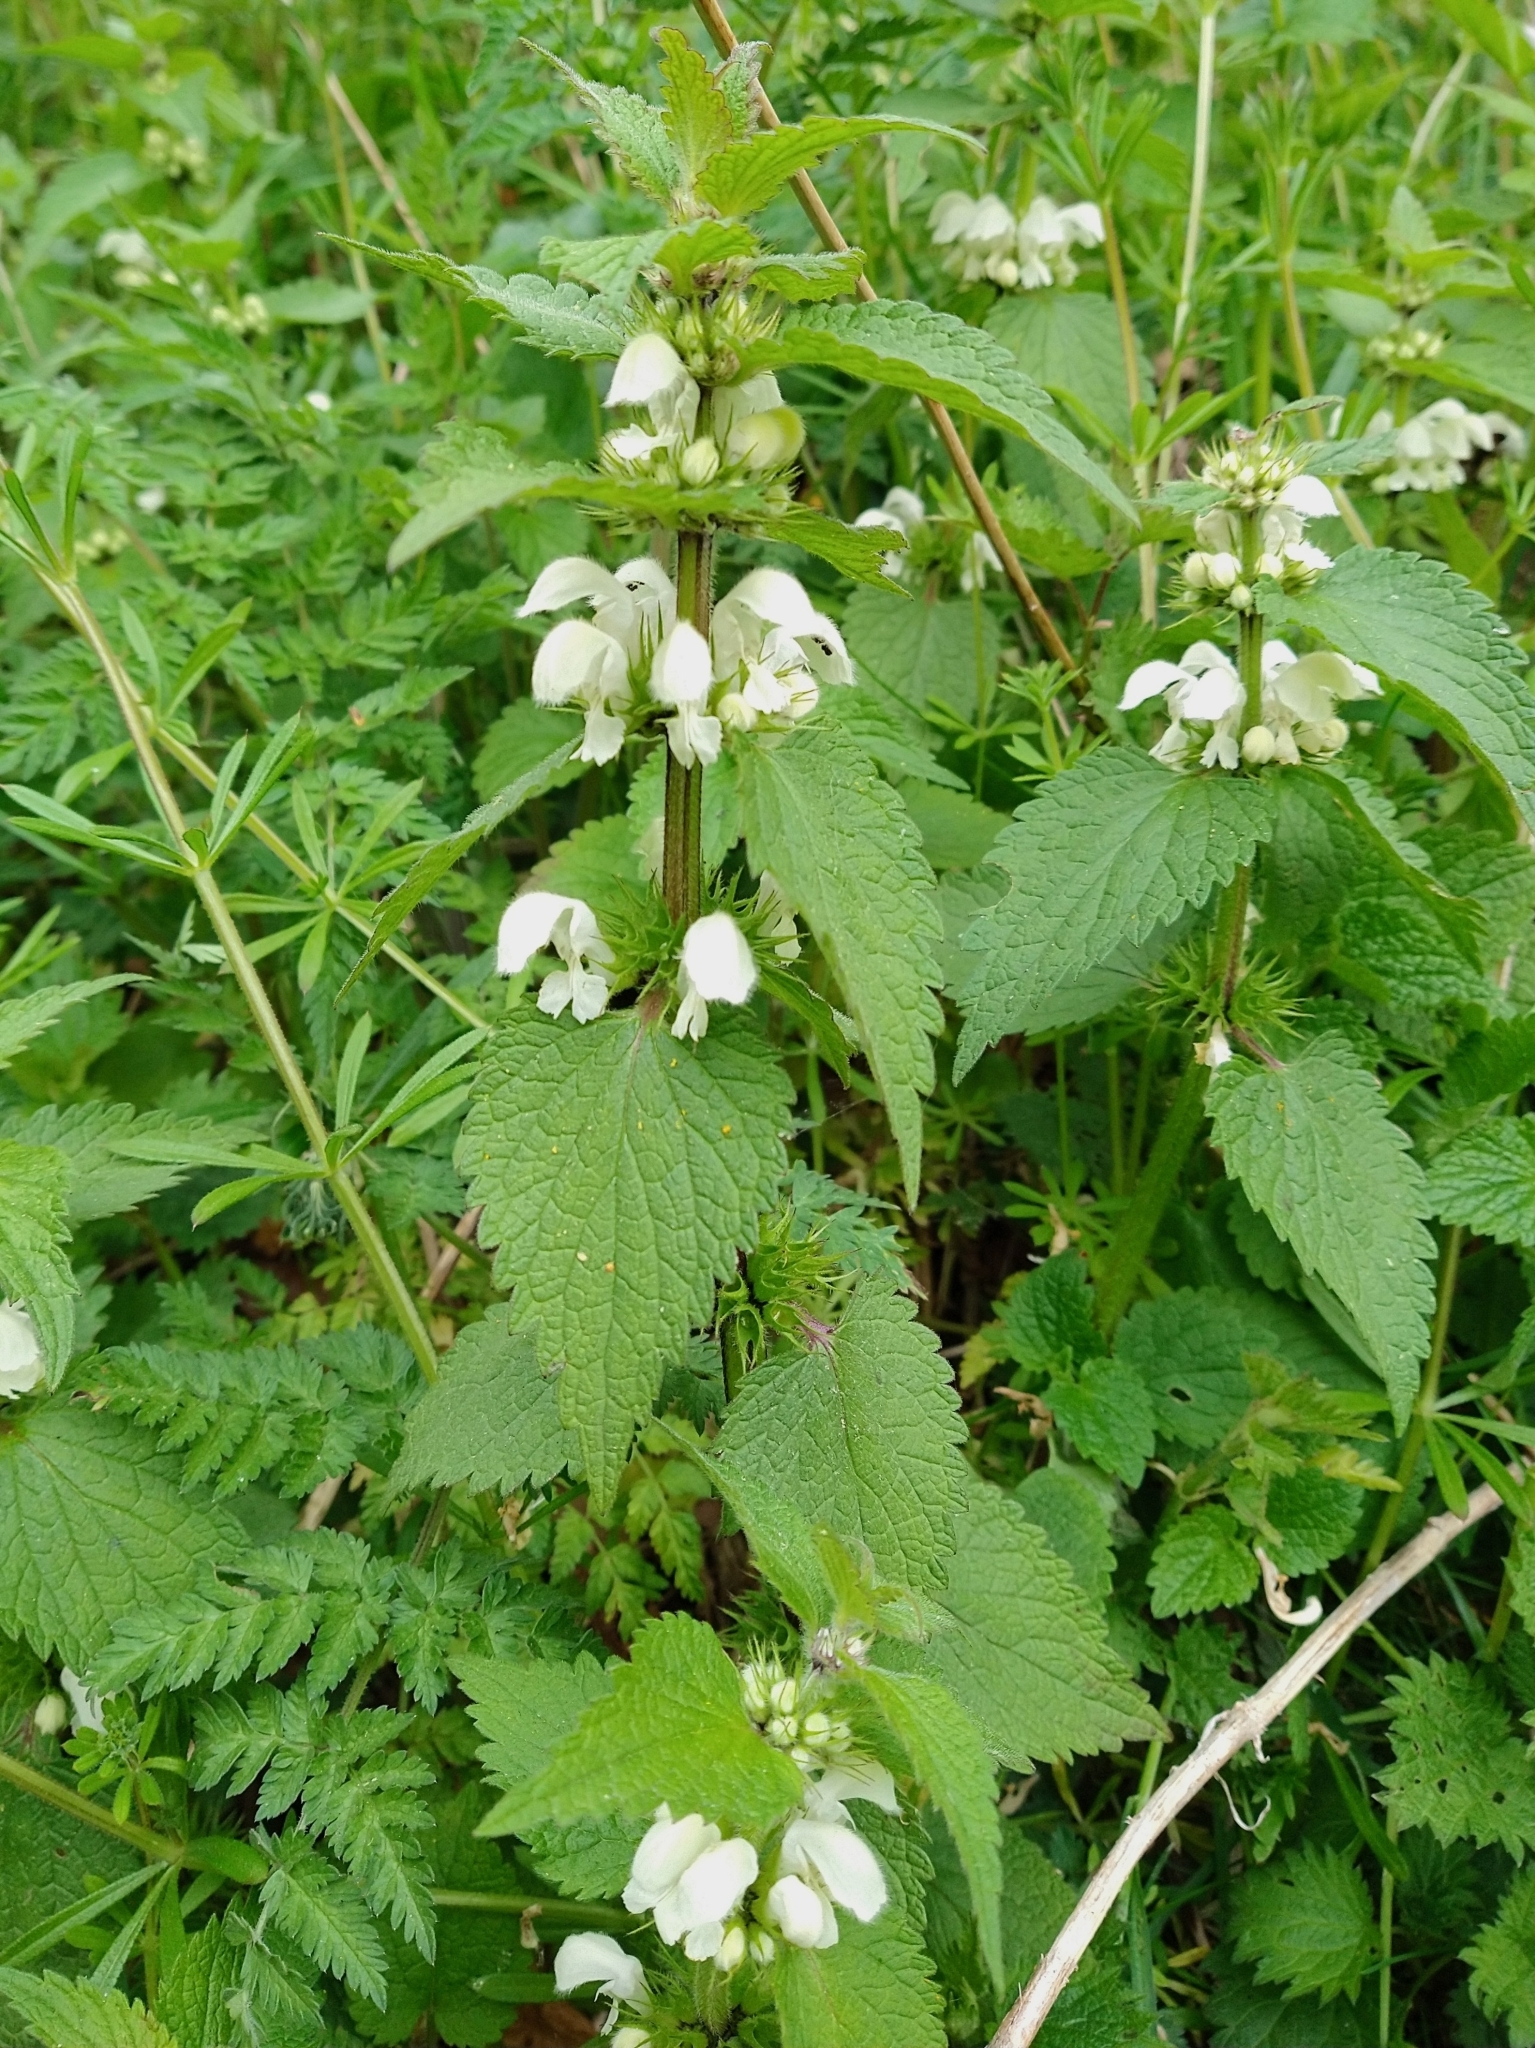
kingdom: Plantae
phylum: Tracheophyta
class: Magnoliopsida
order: Lamiales
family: Lamiaceae
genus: Lamium
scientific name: Lamium album
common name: White dead-nettle
